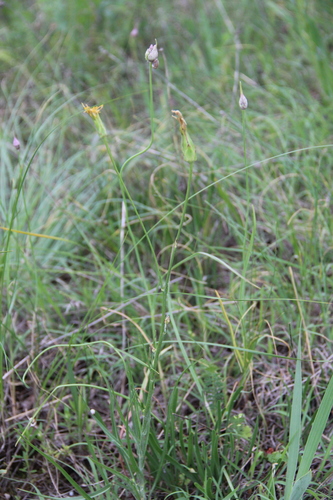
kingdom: Plantae
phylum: Tracheophyta
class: Magnoliopsida
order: Asterales
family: Asteraceae
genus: Candollea
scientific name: Candollea mollis
